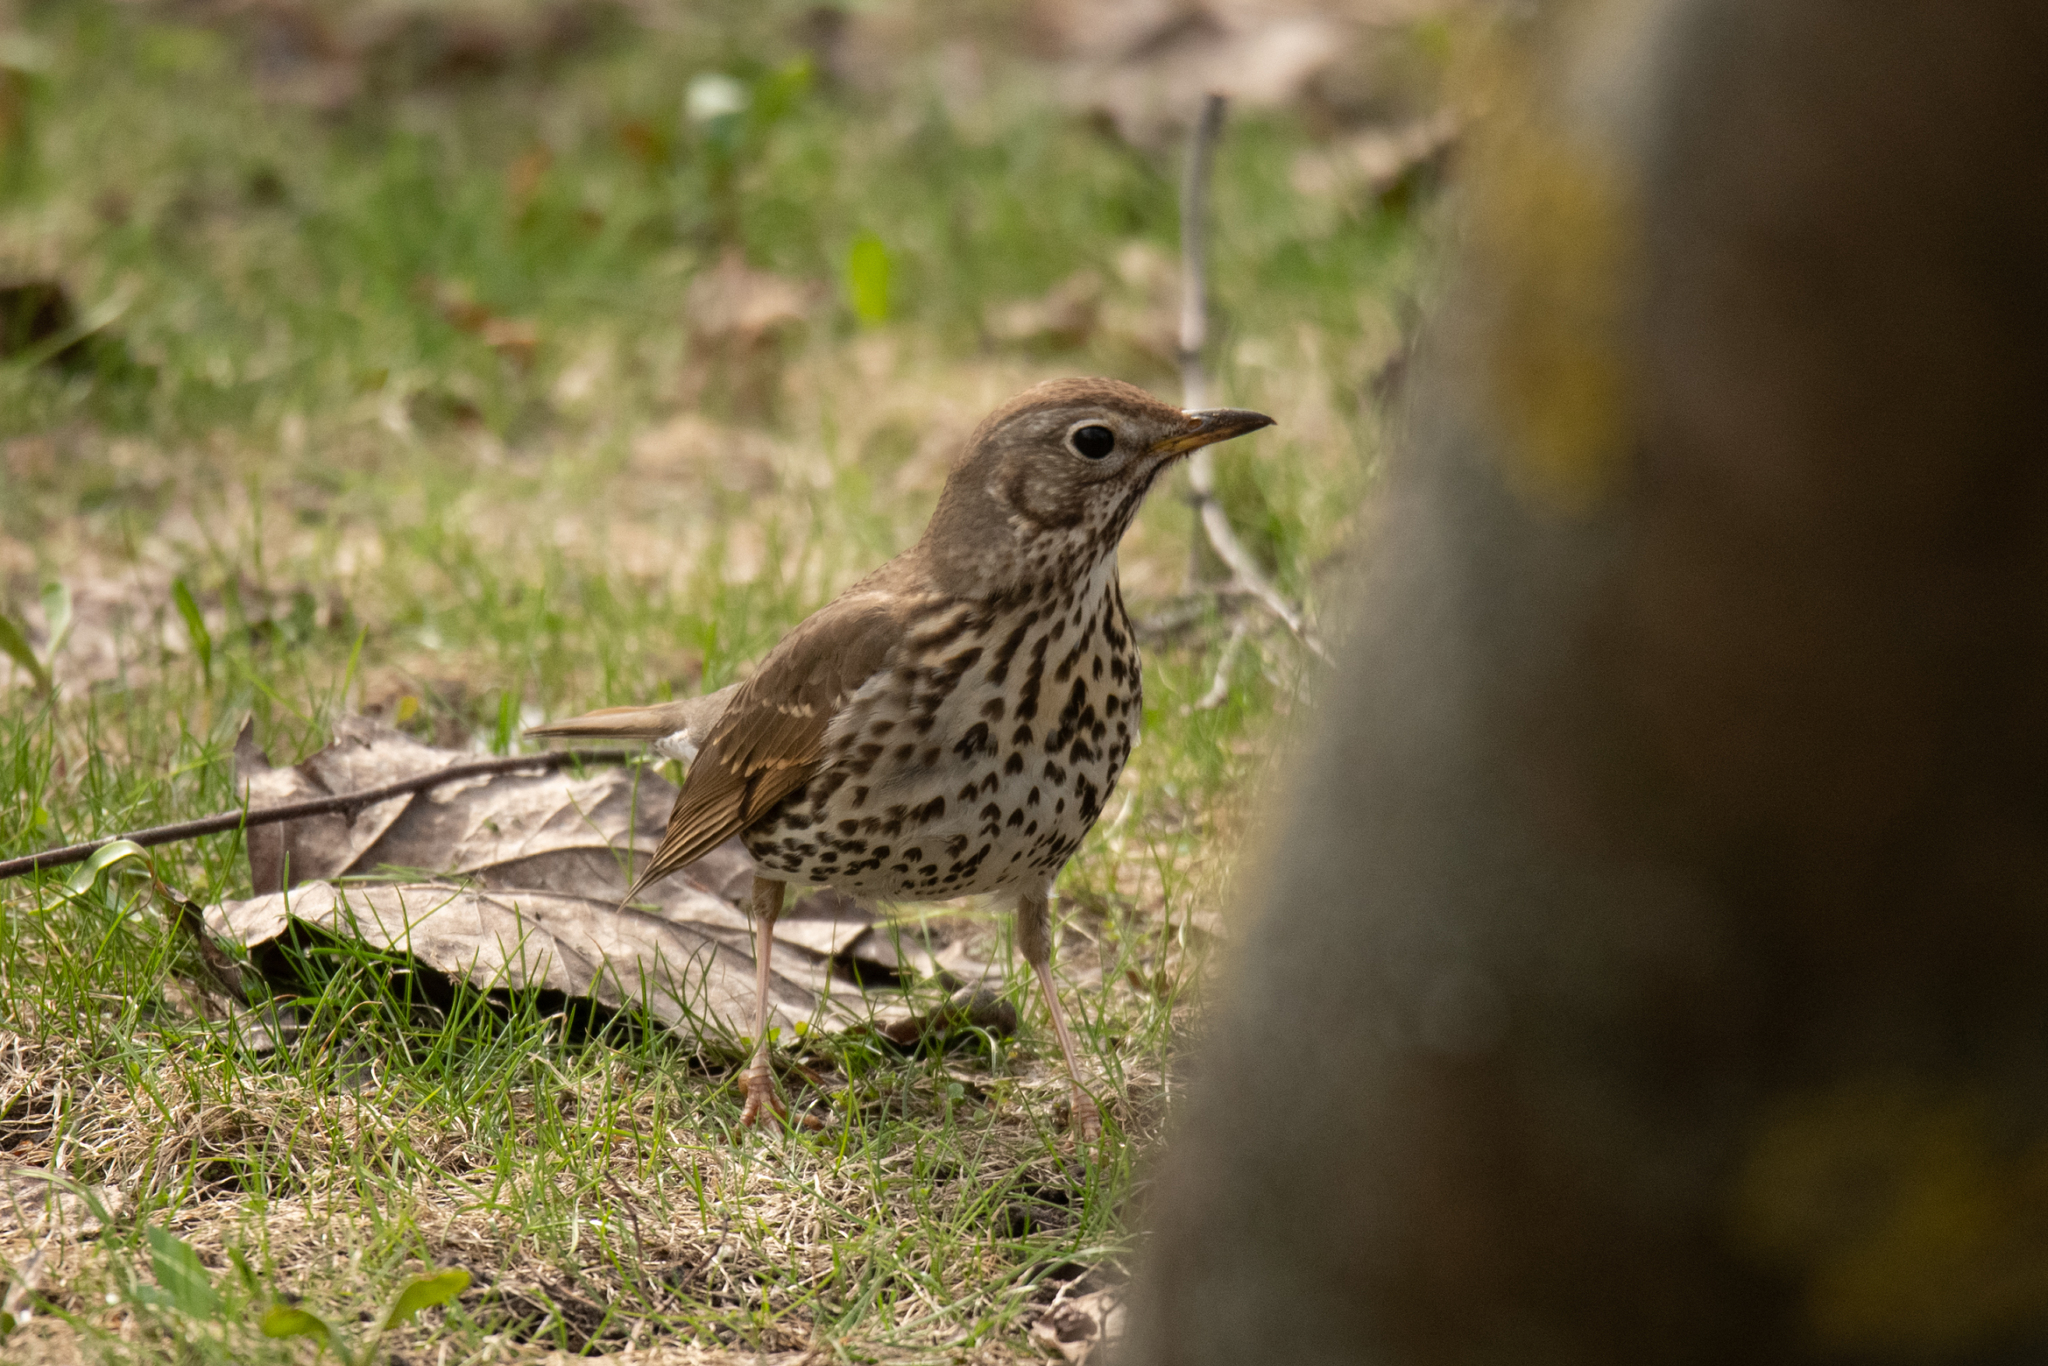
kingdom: Animalia
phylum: Chordata
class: Aves
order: Passeriformes
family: Turdidae
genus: Turdus
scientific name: Turdus philomelos
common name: Song thrush
